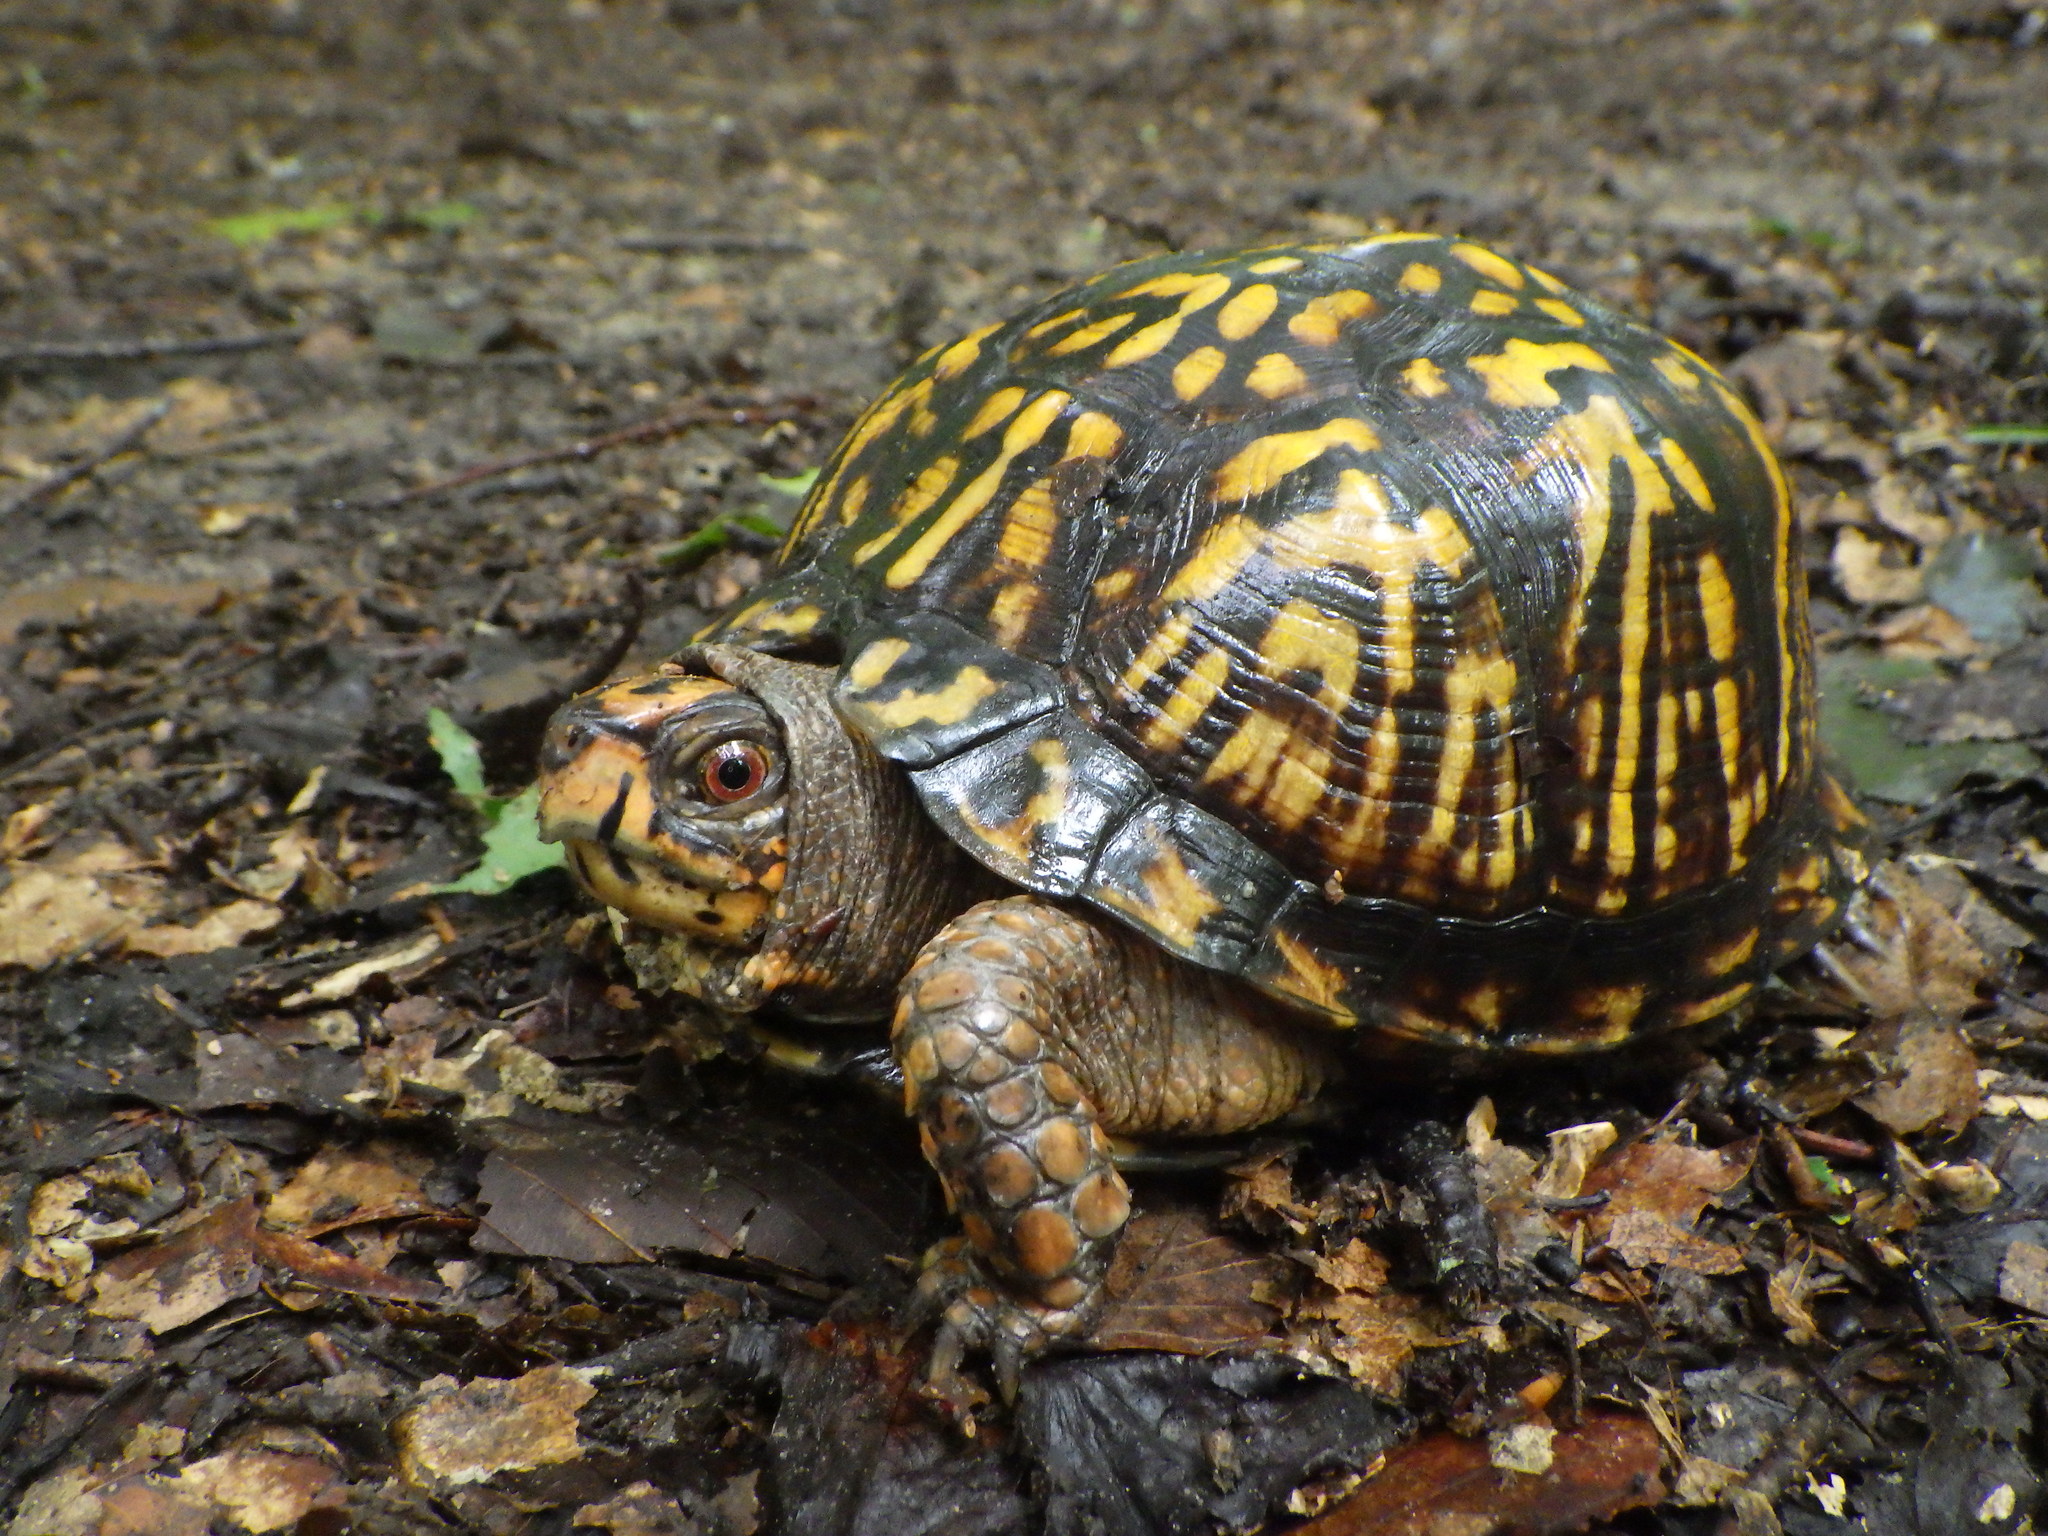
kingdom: Animalia
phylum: Chordata
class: Testudines
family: Emydidae
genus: Terrapene
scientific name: Terrapene carolina
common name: Common box turtle
